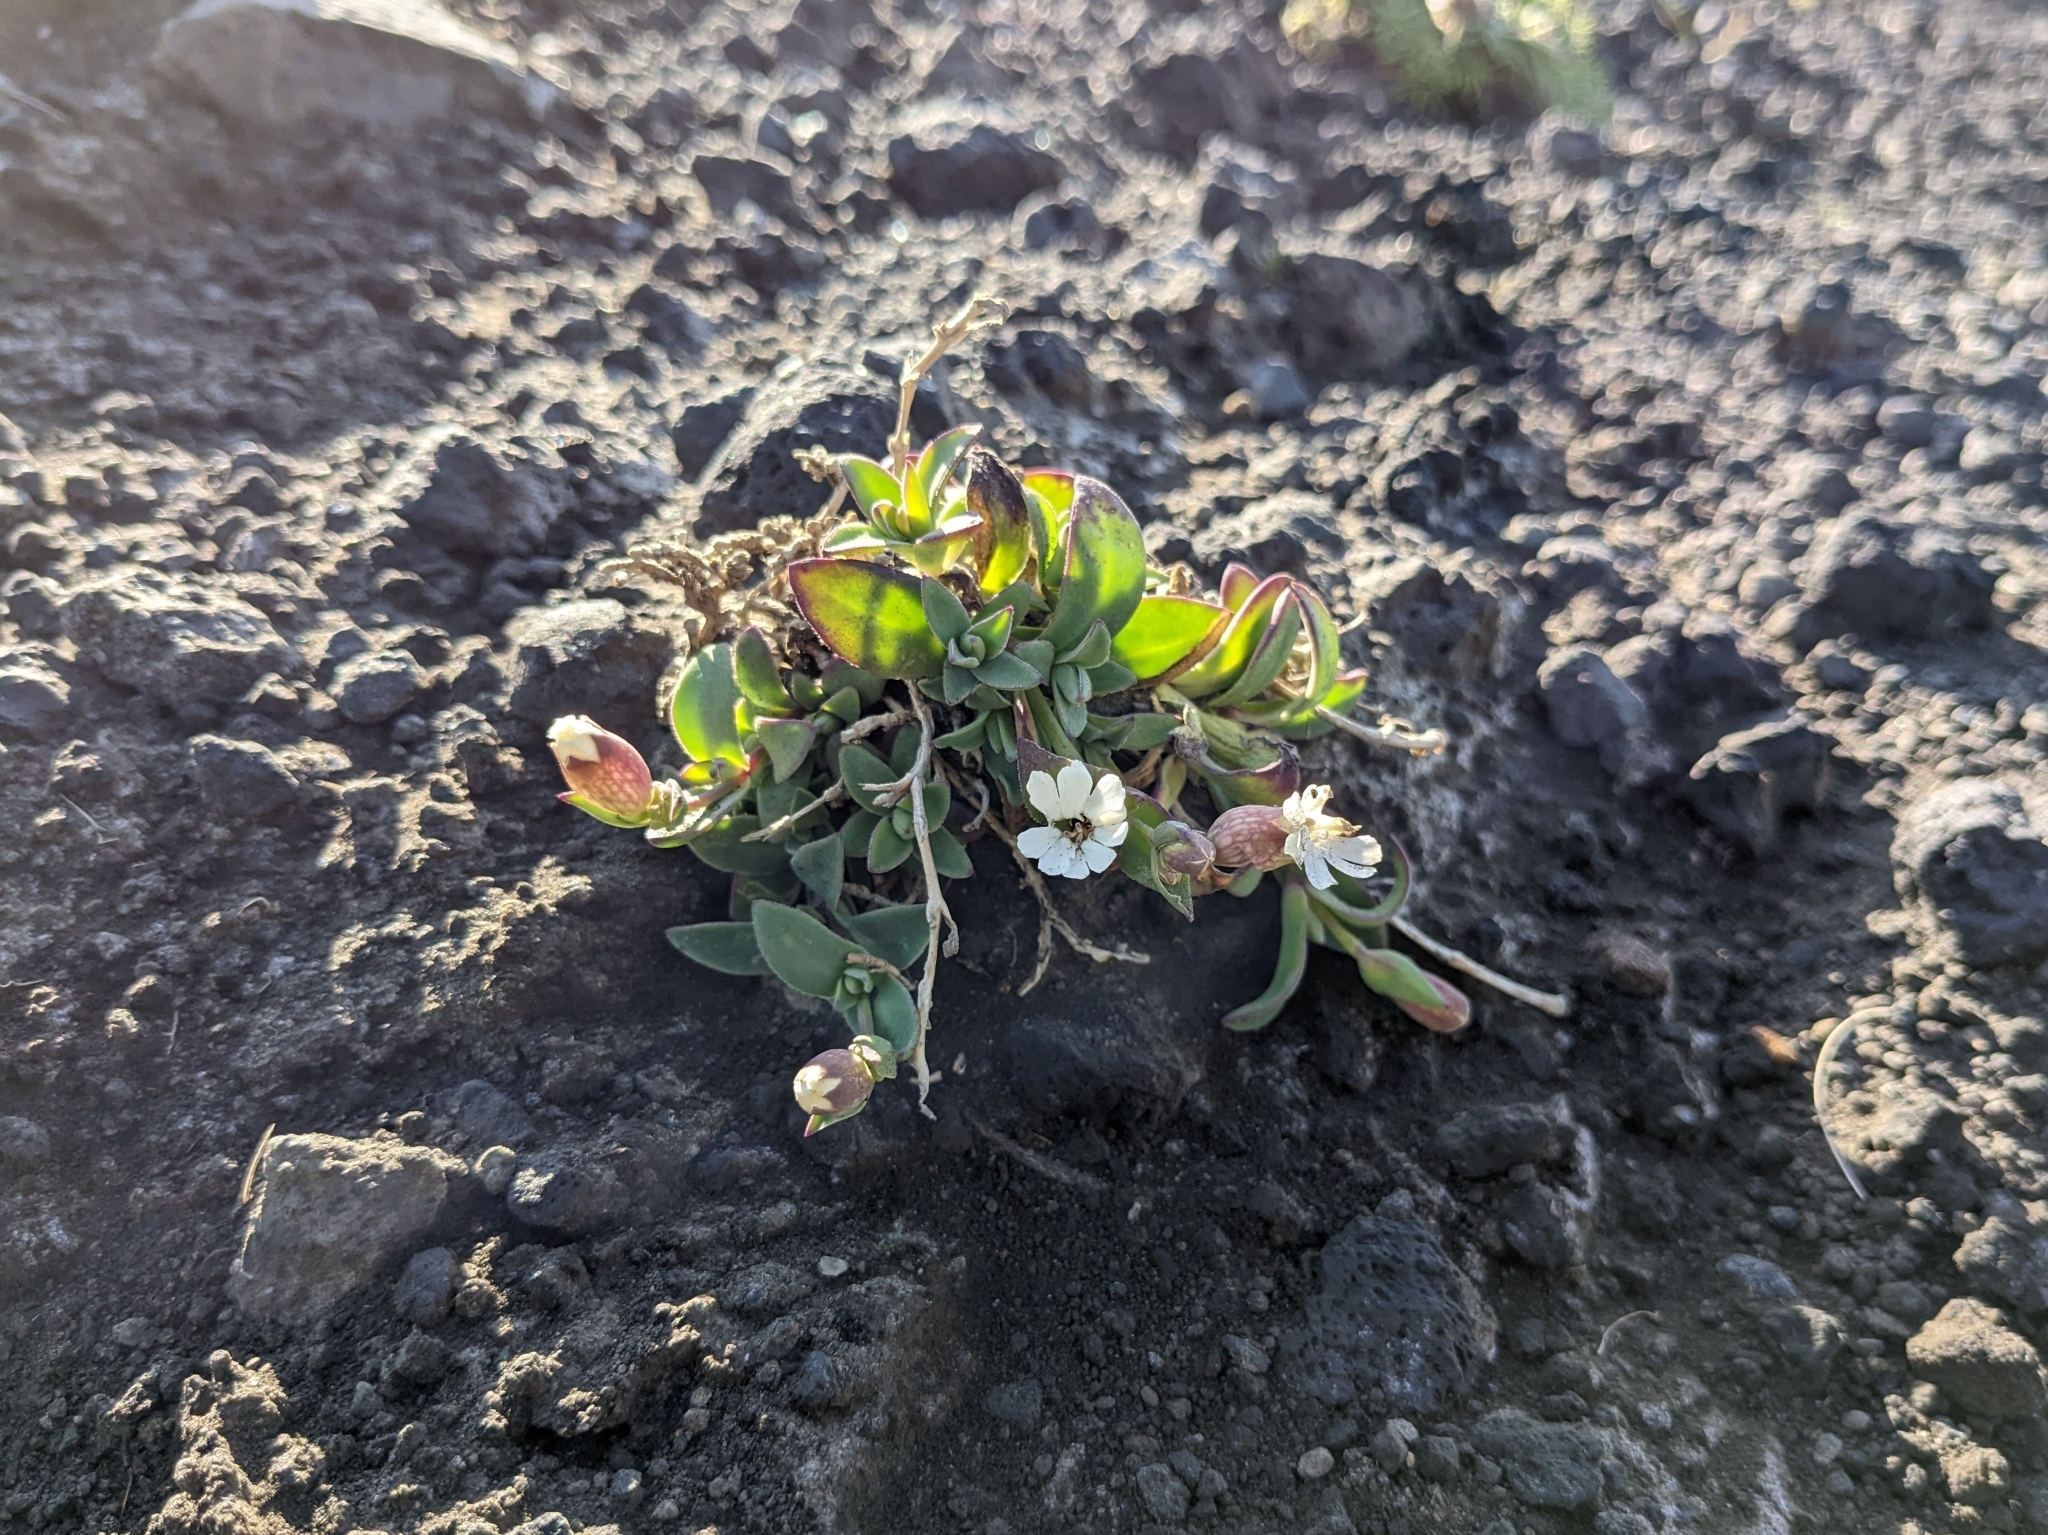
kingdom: Plantae
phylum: Tracheophyta
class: Magnoliopsida
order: Caryophyllales
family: Caryophyllaceae
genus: Silene
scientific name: Silene uniflora
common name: Sea campion
